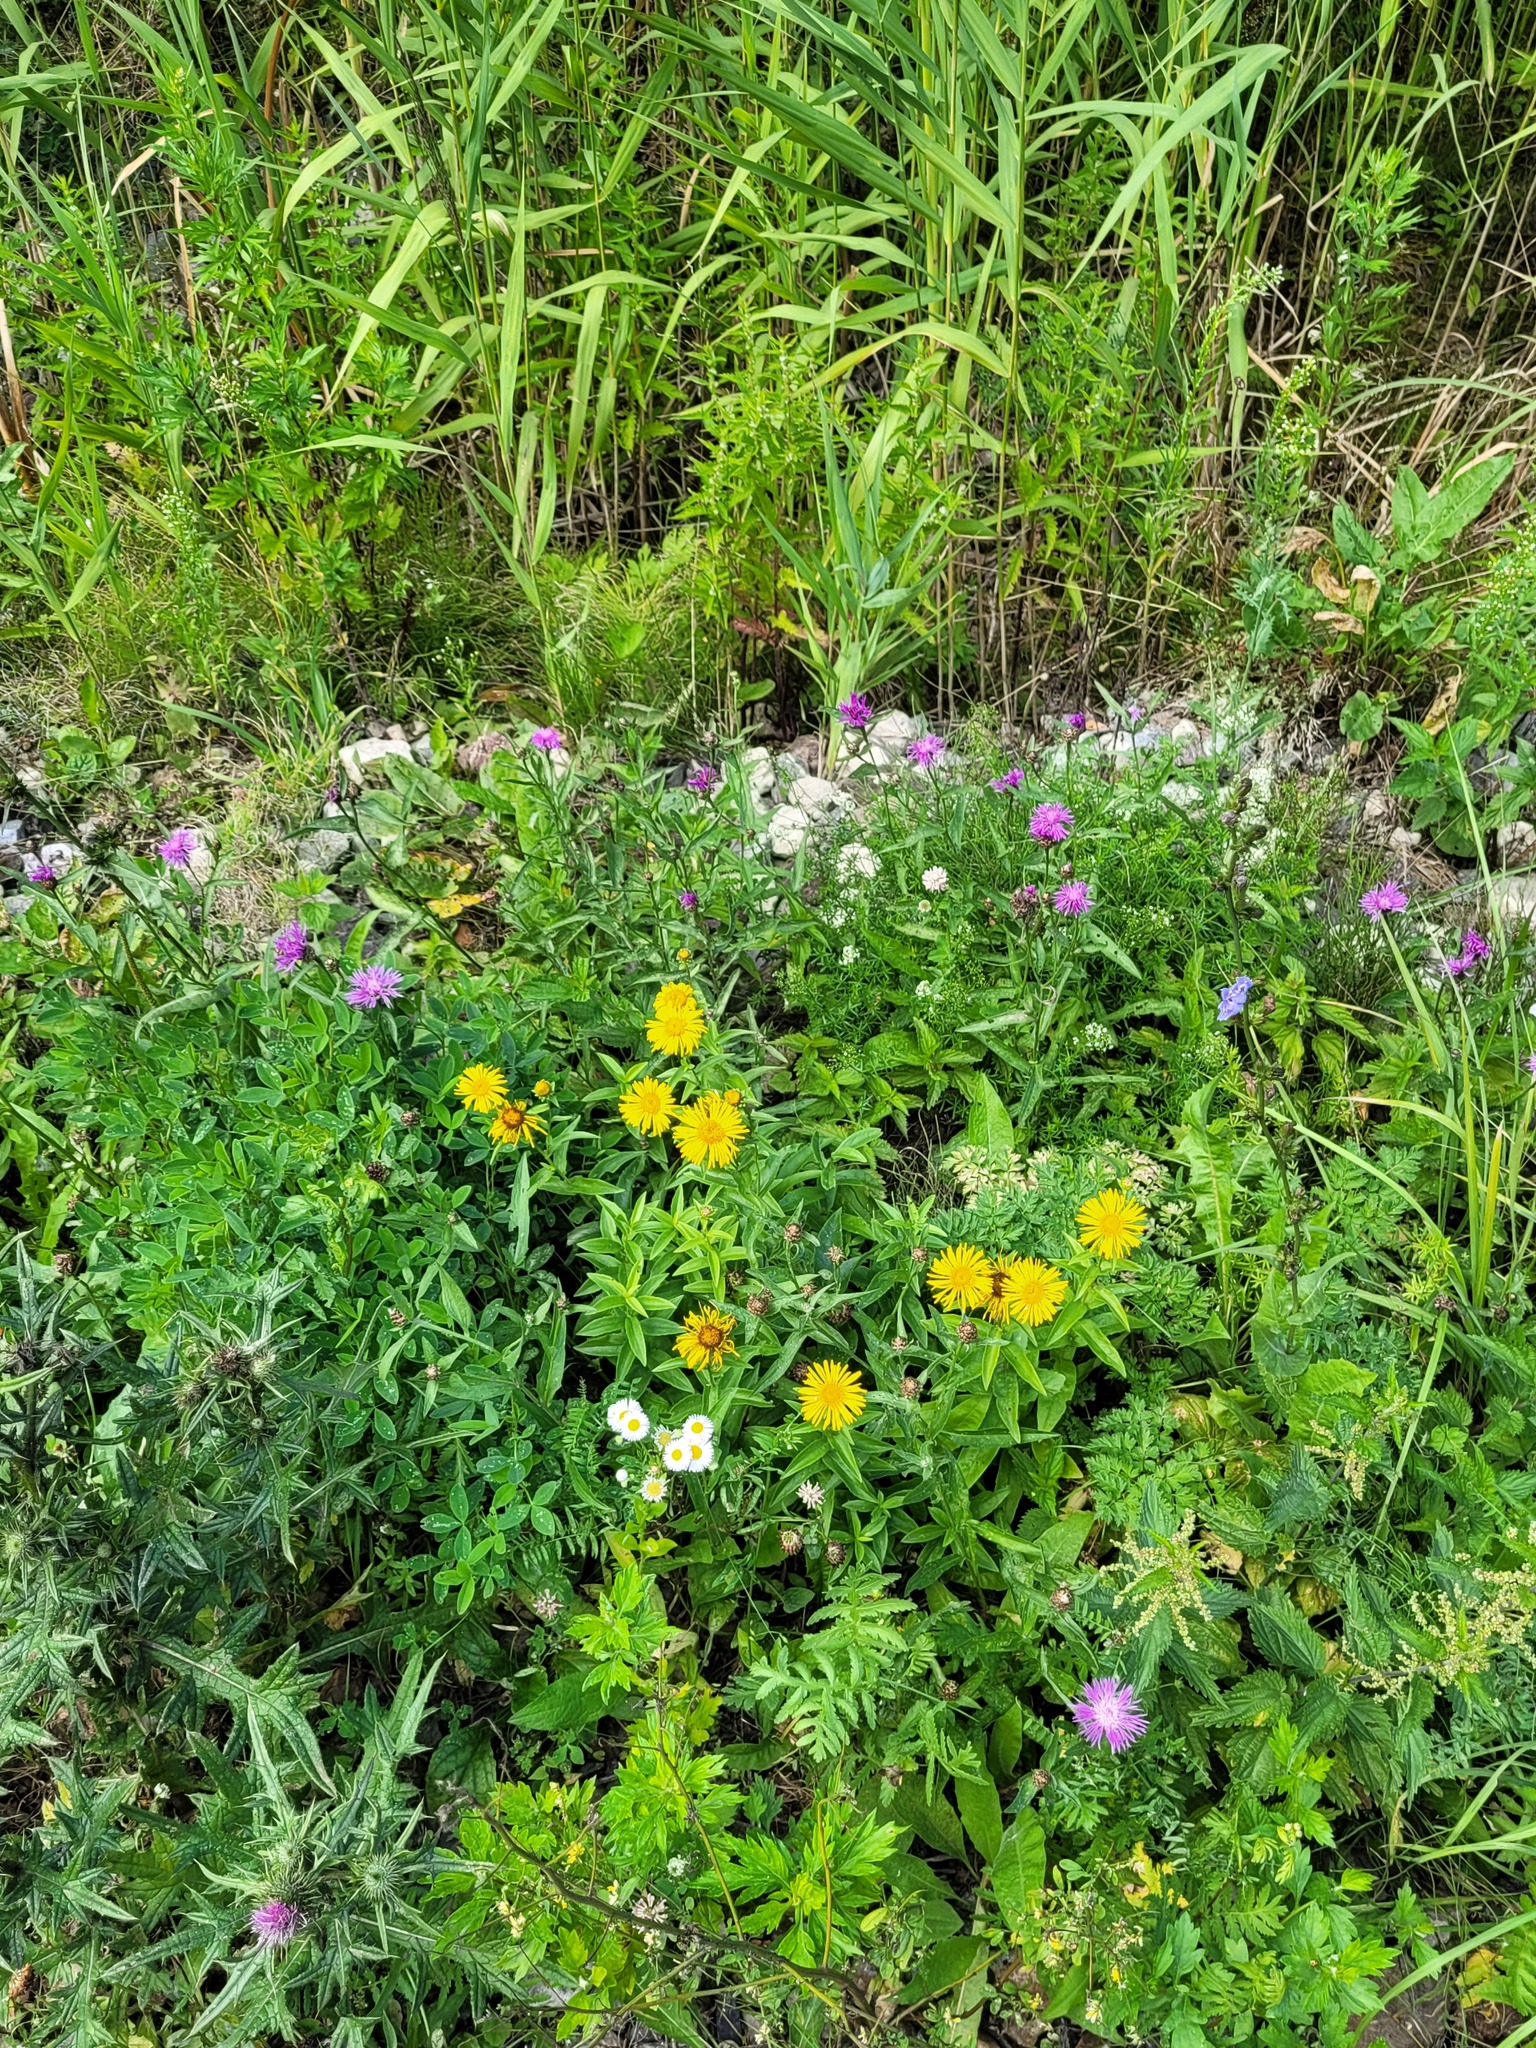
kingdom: Plantae
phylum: Tracheophyta
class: Magnoliopsida
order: Asterales
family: Asteraceae
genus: Pentanema
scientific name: Pentanema salicinum
